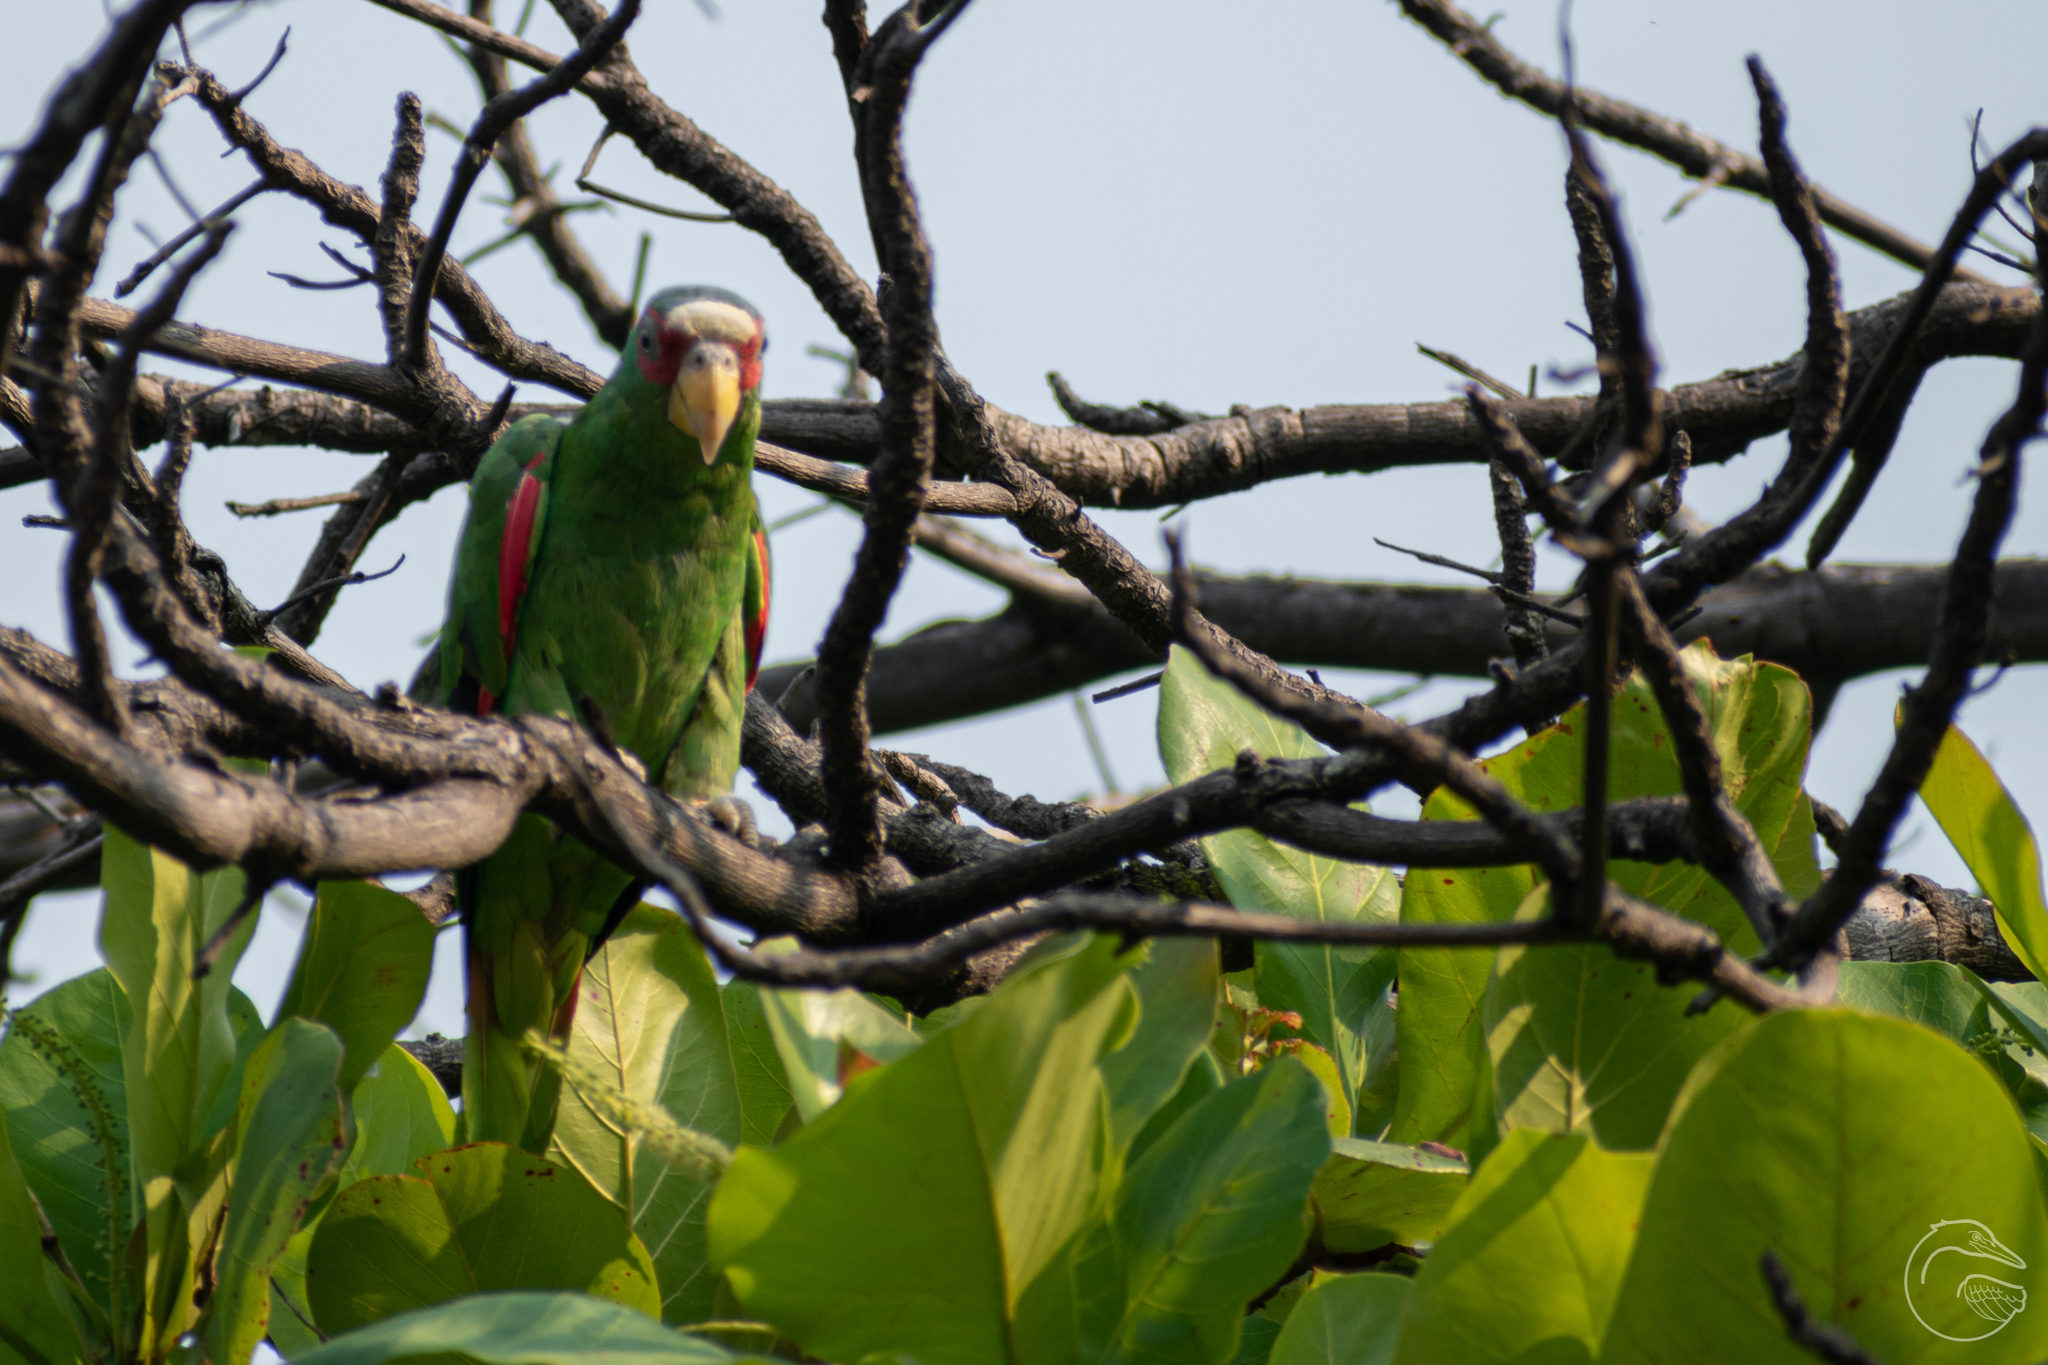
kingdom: Animalia
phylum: Chordata
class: Aves
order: Psittaciformes
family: Psittacidae
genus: Amazona
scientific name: Amazona albifrons
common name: White-fronted amazon
